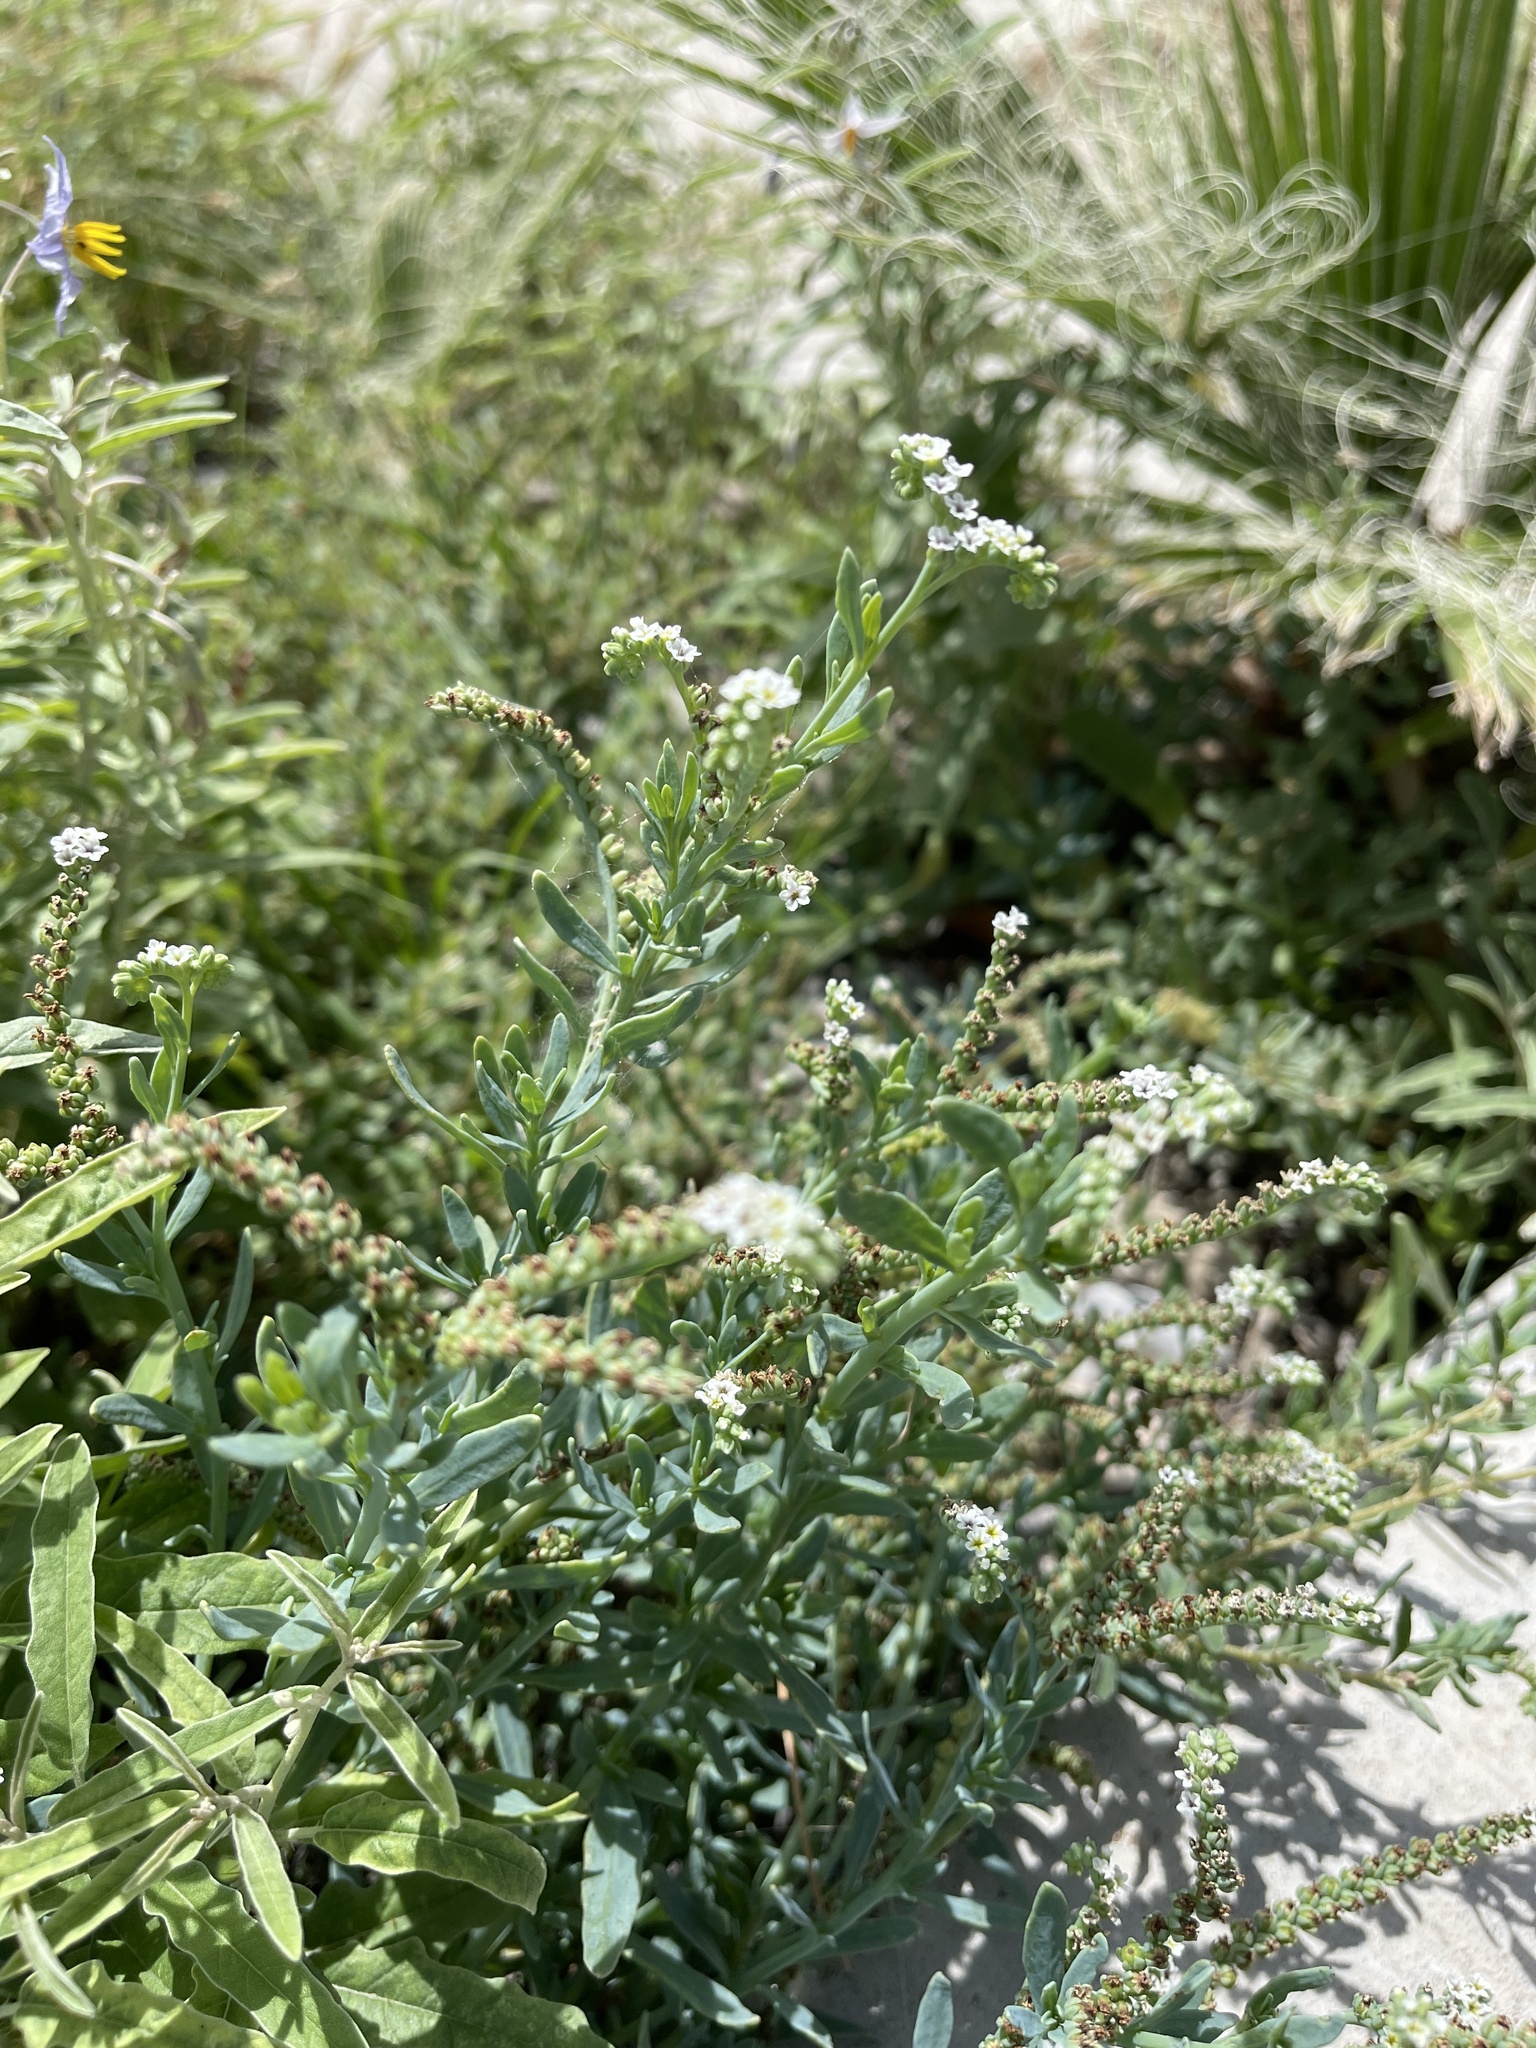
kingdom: Plantae
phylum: Tracheophyta
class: Magnoliopsida
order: Boraginales
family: Heliotropiaceae
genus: Heliotropium
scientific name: Heliotropium curassavicum
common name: Seaside heliotrope
